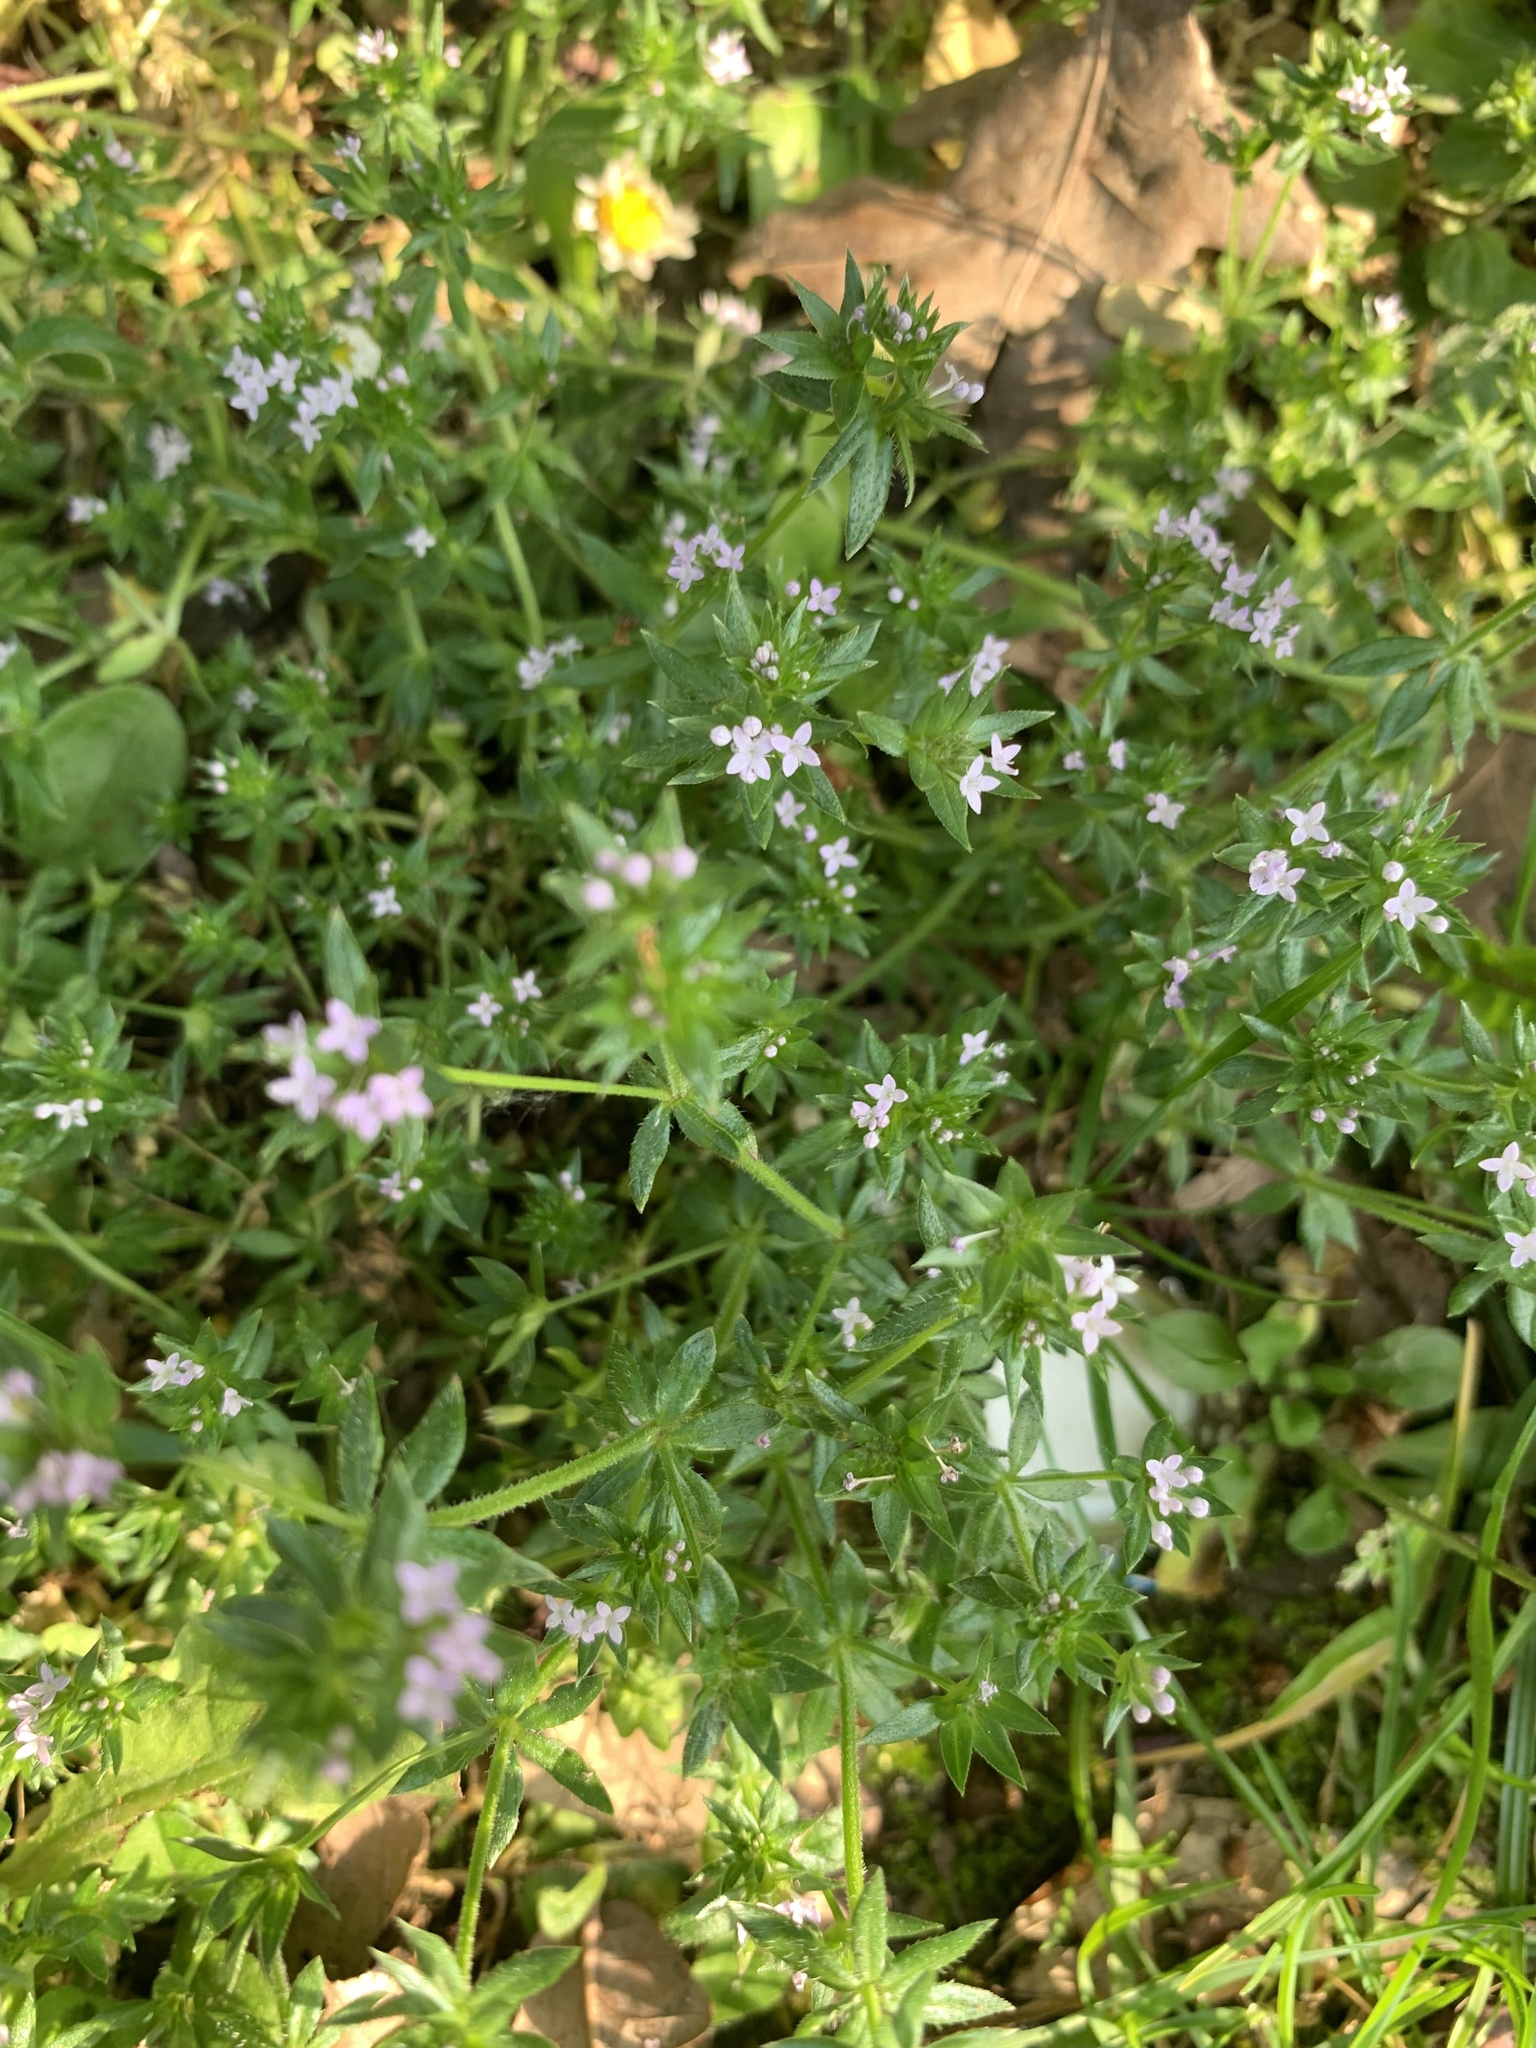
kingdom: Plantae
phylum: Tracheophyta
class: Magnoliopsida
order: Gentianales
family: Rubiaceae
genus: Sherardia
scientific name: Sherardia arvensis
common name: Field madder
